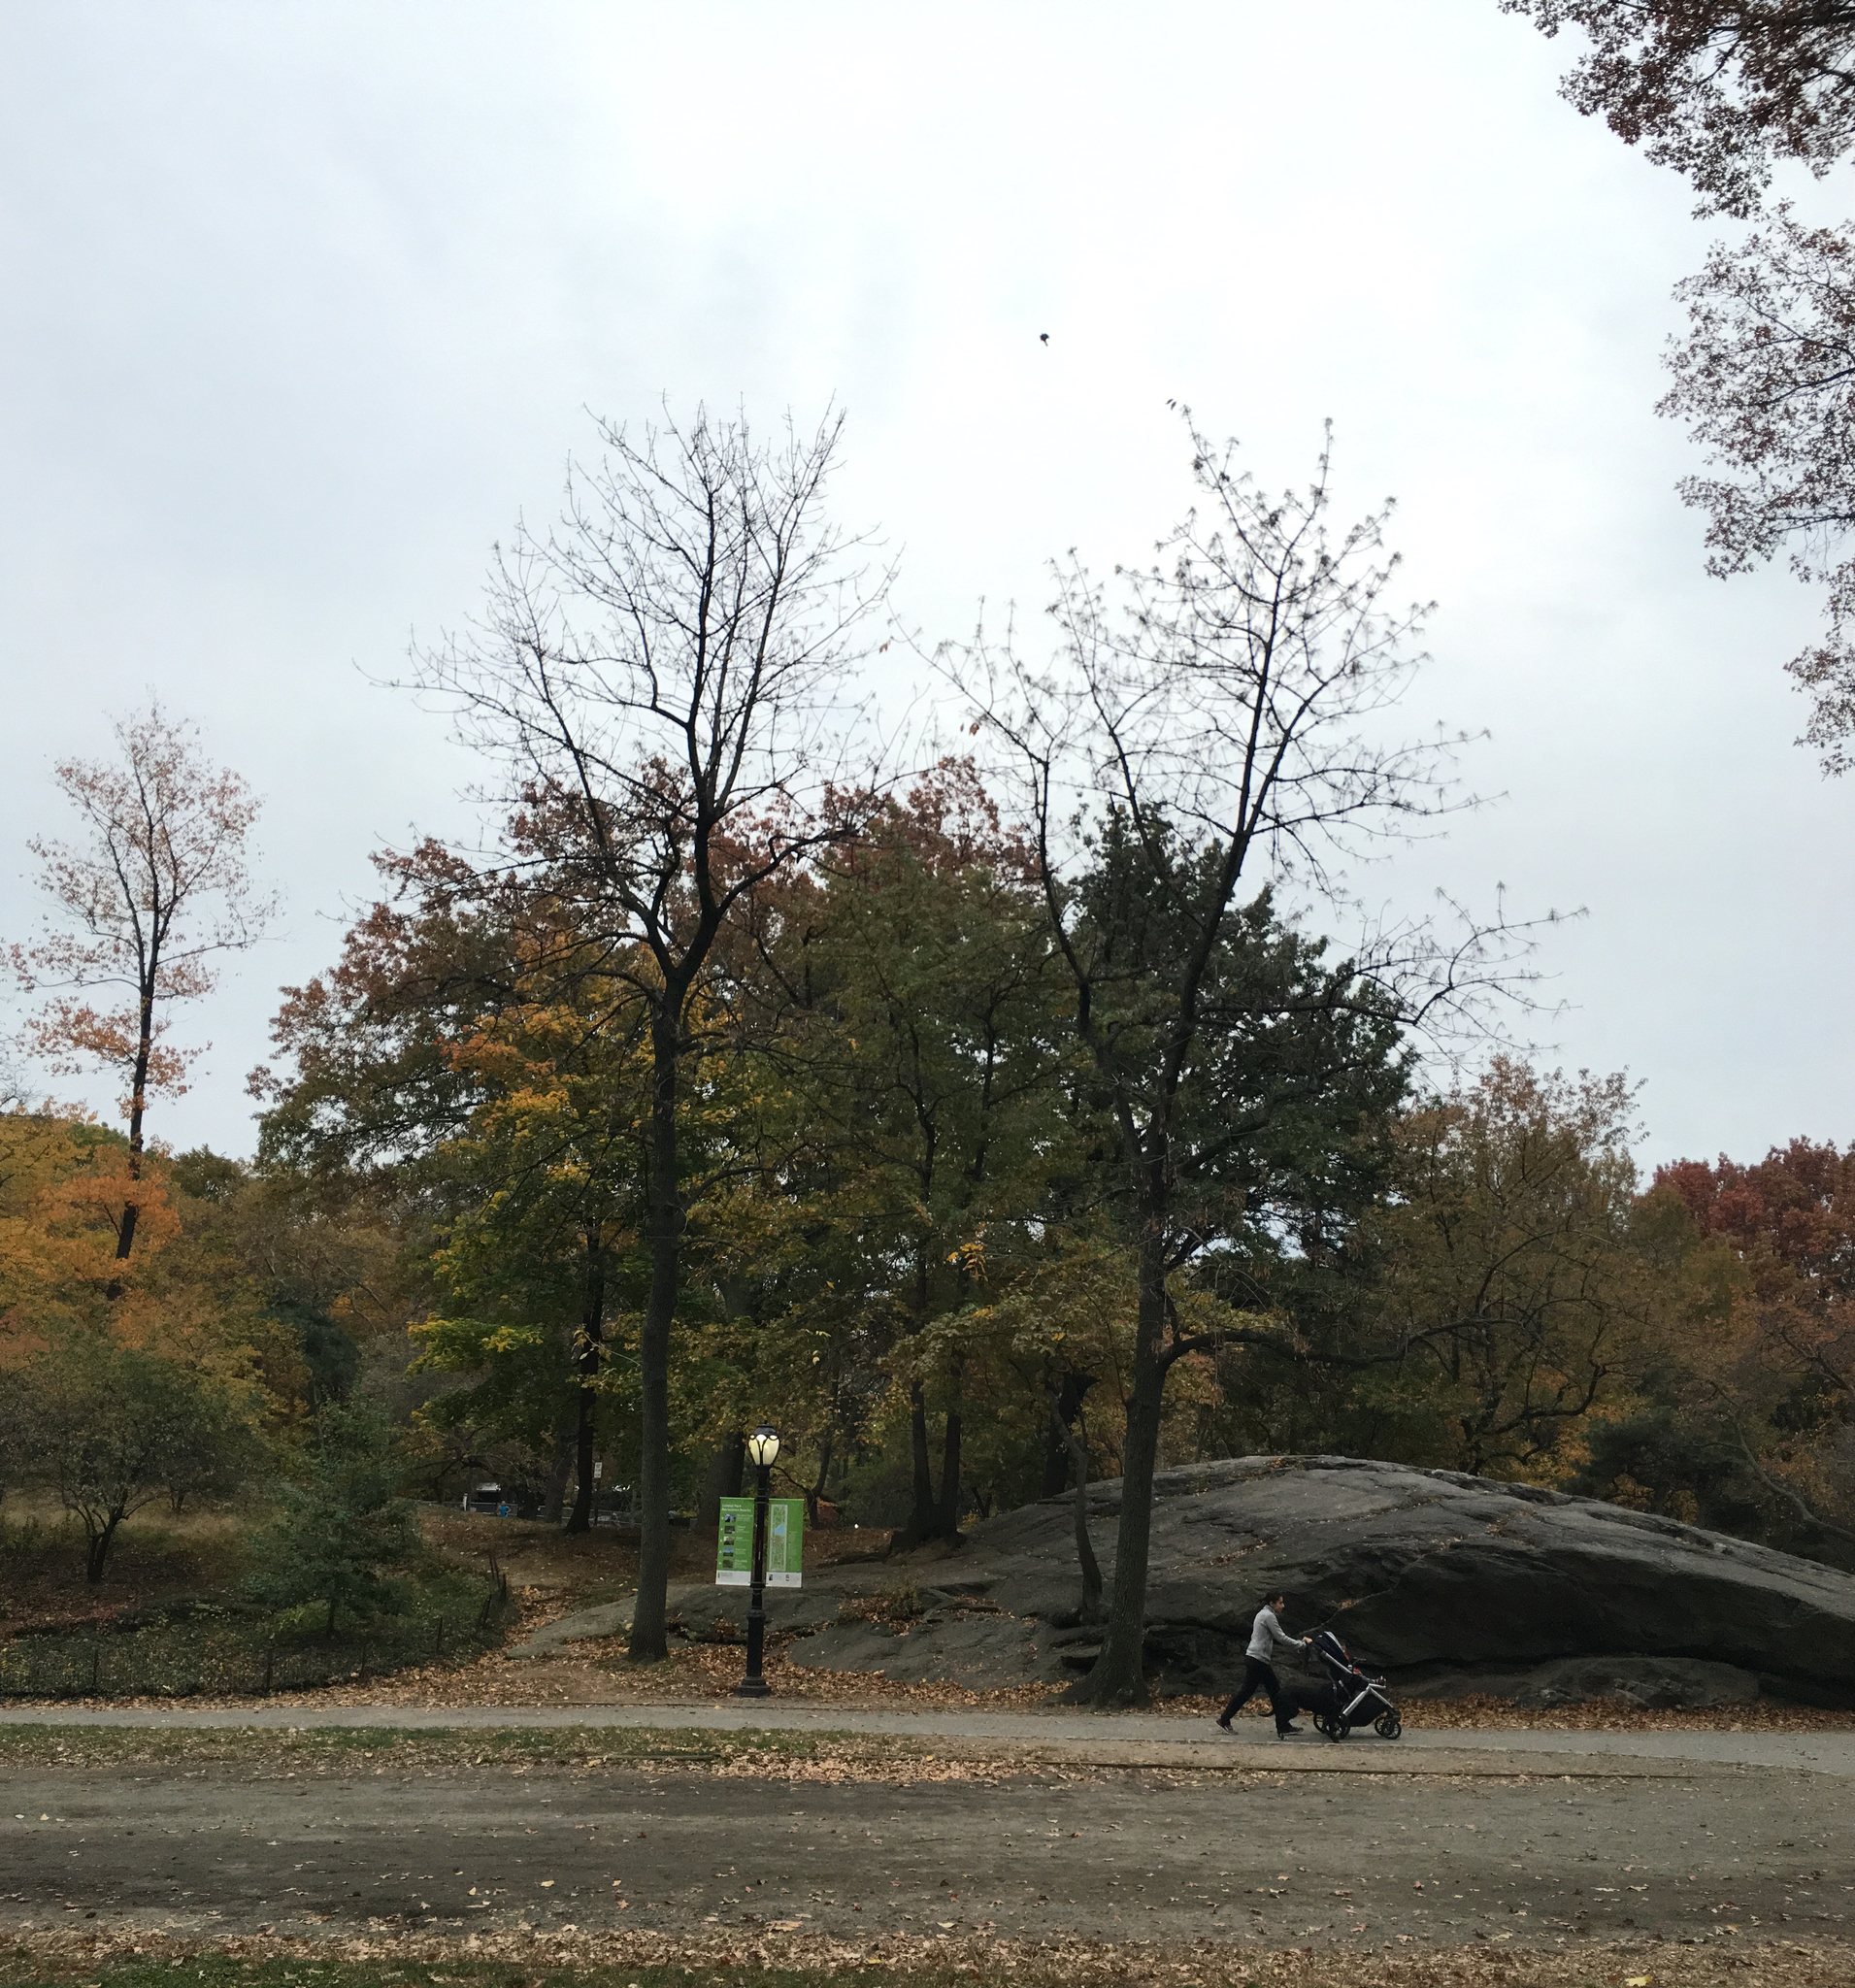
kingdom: Plantae
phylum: Tracheophyta
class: Magnoliopsida
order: Lamiales
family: Oleaceae
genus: Fraxinus
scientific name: Fraxinus profunda
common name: Pumpkin ash
